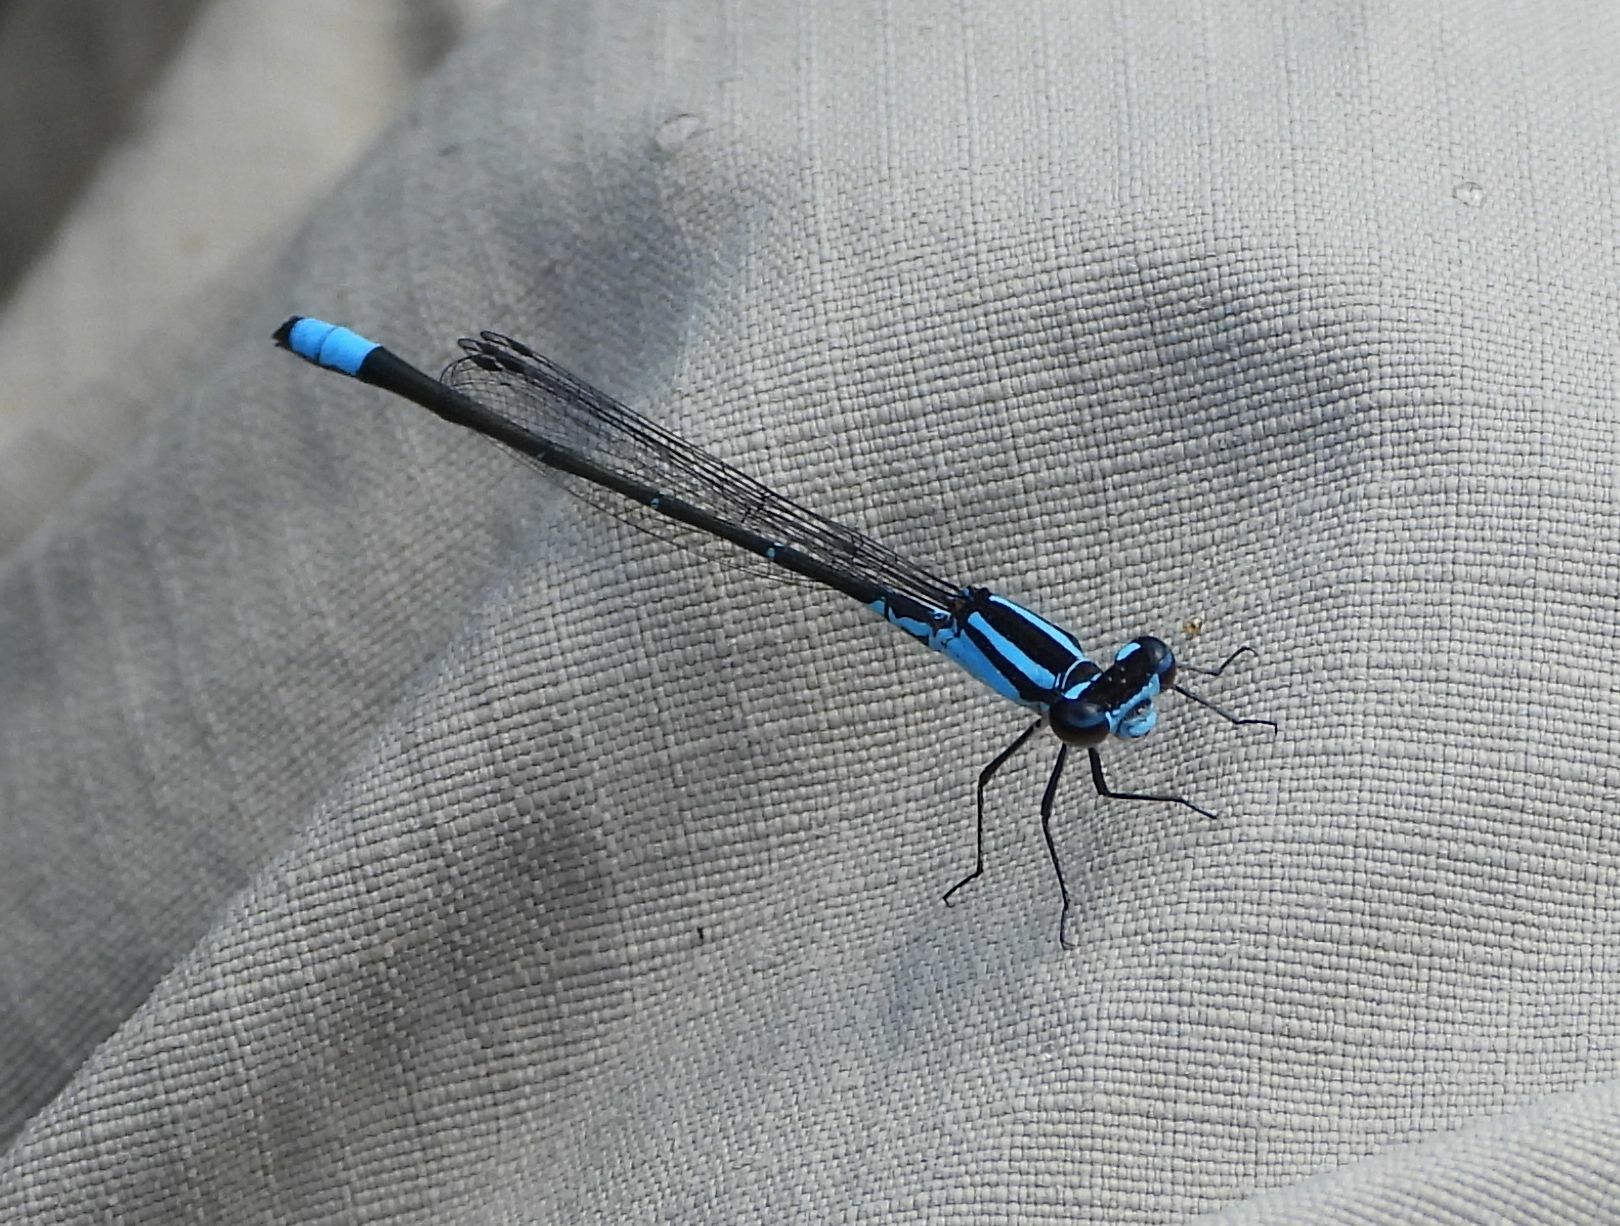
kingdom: Animalia
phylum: Arthropoda
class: Insecta
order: Odonata
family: Coenagrionidae
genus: Enallagma
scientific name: Enallagma geminatum
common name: Skimming bluet
